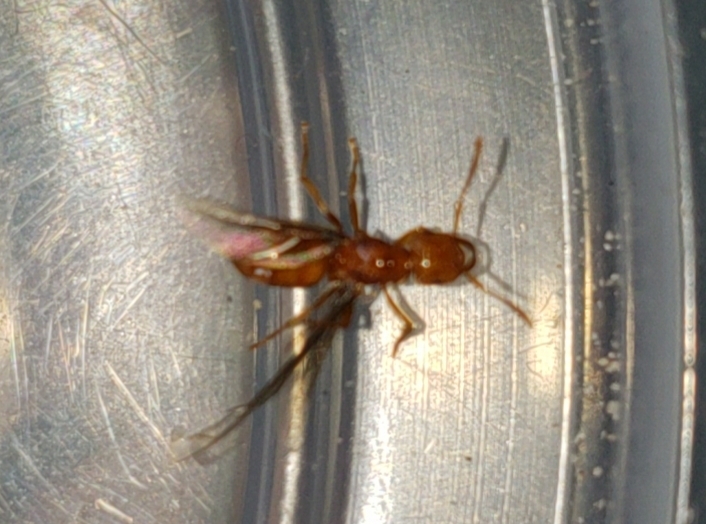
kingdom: Animalia
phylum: Arthropoda
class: Insecta
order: Hymenoptera
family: Formicidae
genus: Acanthomyops
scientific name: Acanthomyops interjectus
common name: Larger yellow ant
